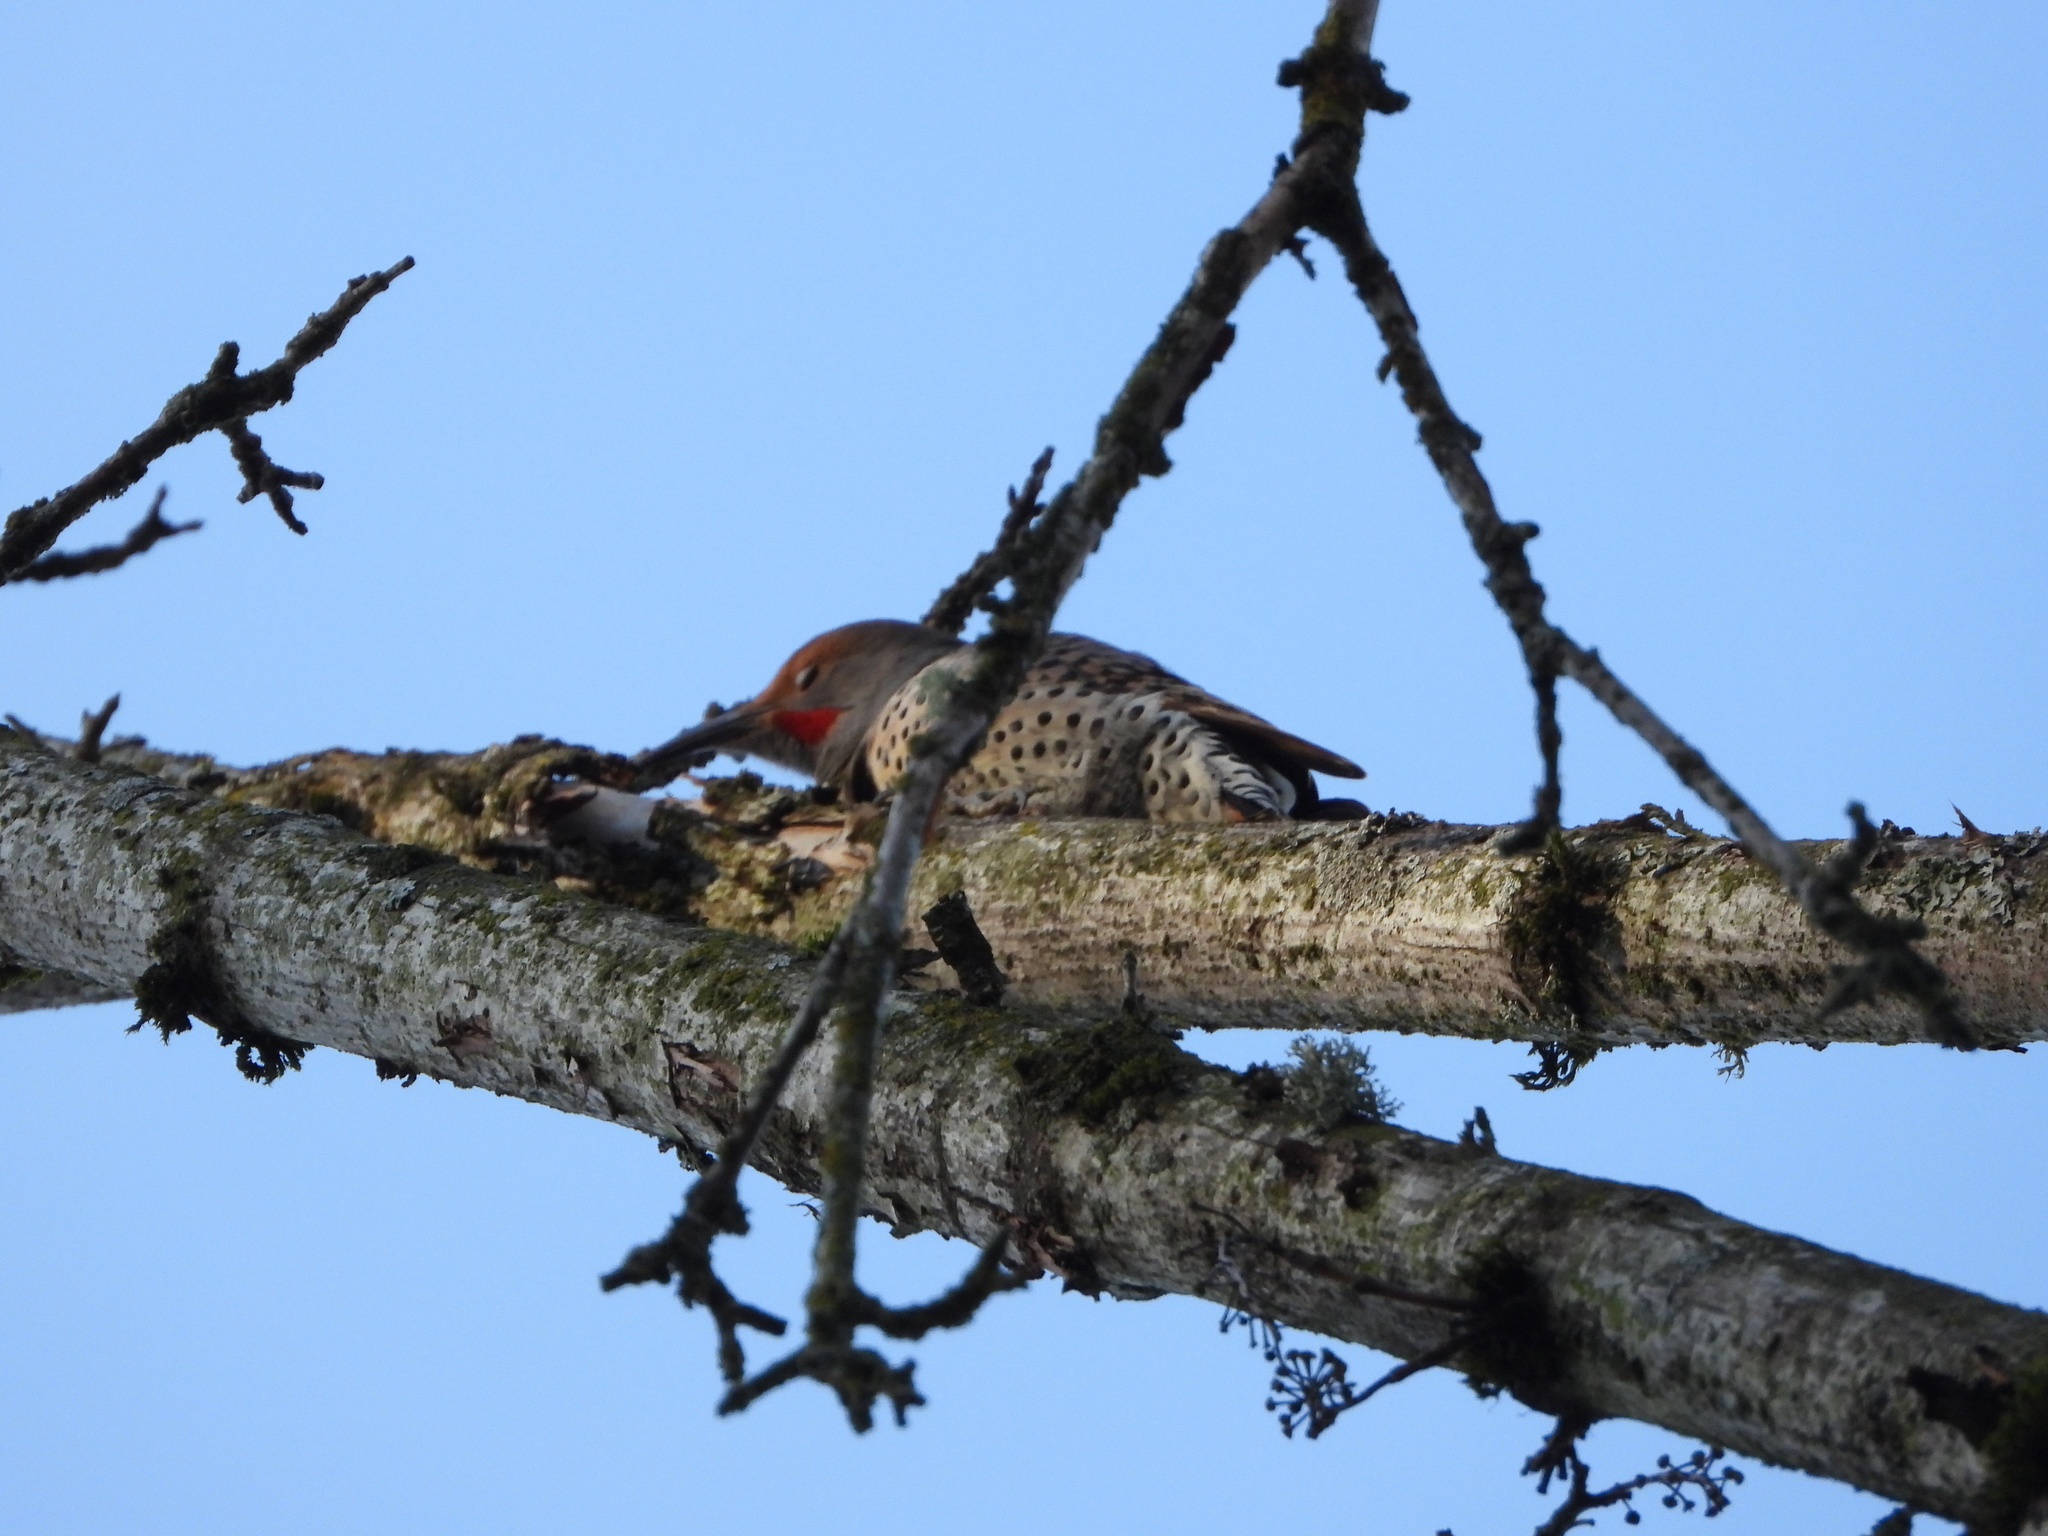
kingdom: Animalia
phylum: Chordata
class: Aves
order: Piciformes
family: Picidae
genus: Colaptes
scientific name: Colaptes auratus
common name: Northern flicker
